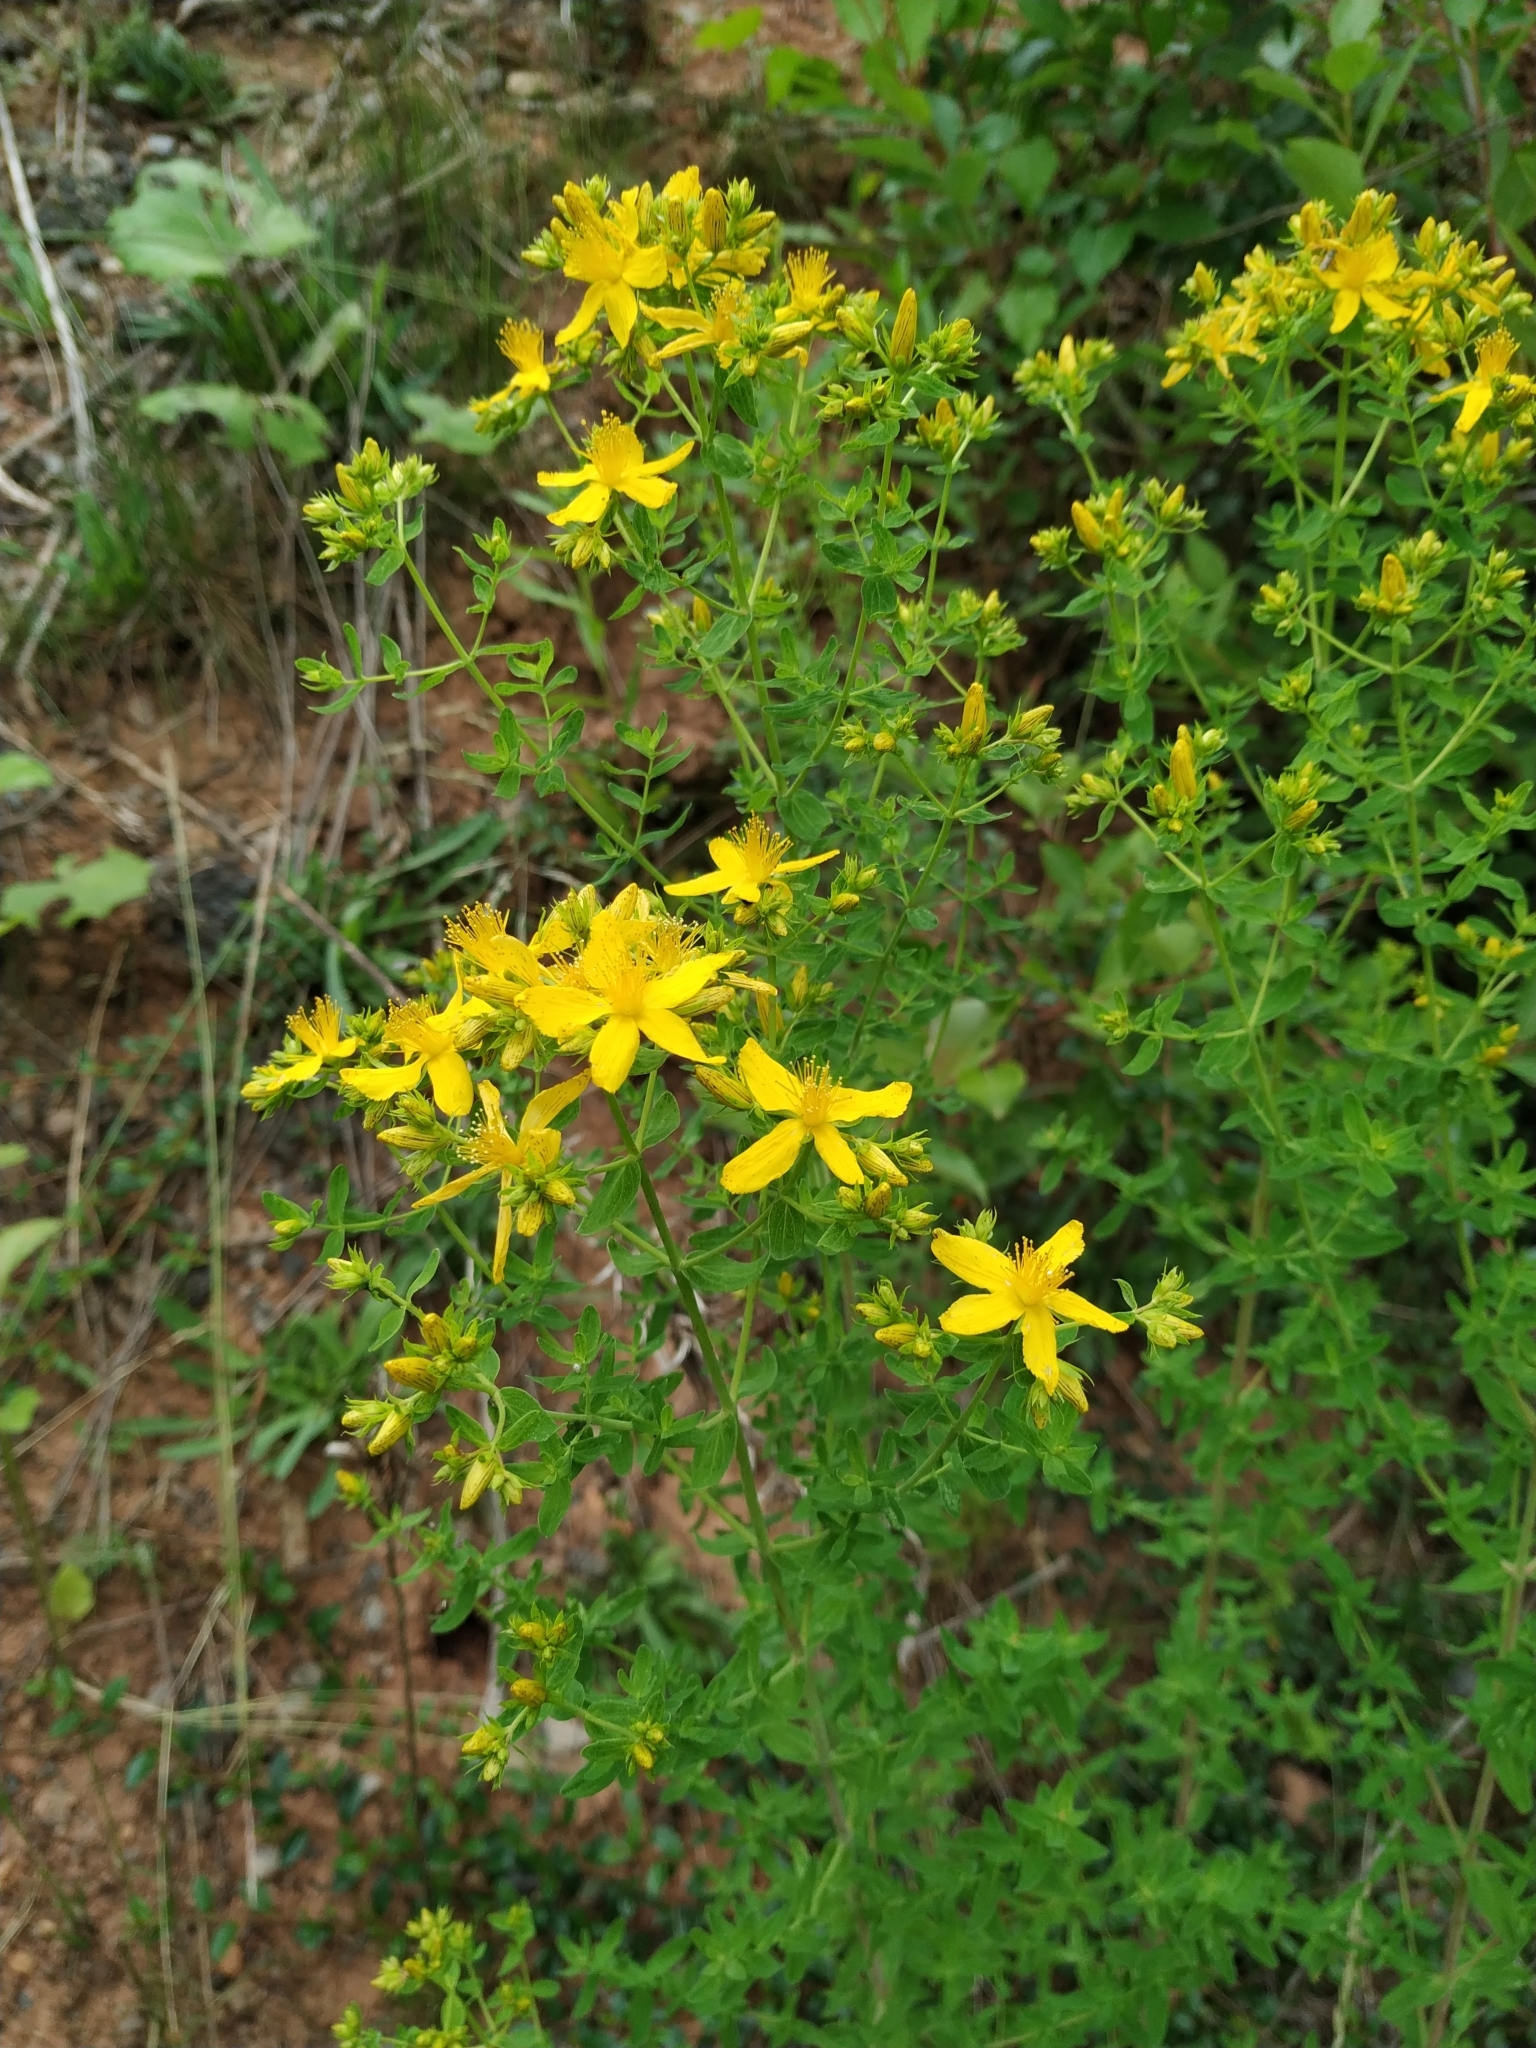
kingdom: Plantae
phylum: Tracheophyta
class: Magnoliopsida
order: Malpighiales
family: Hypericaceae
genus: Hypericum
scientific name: Hypericum perforatum
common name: Common st. johnswort
